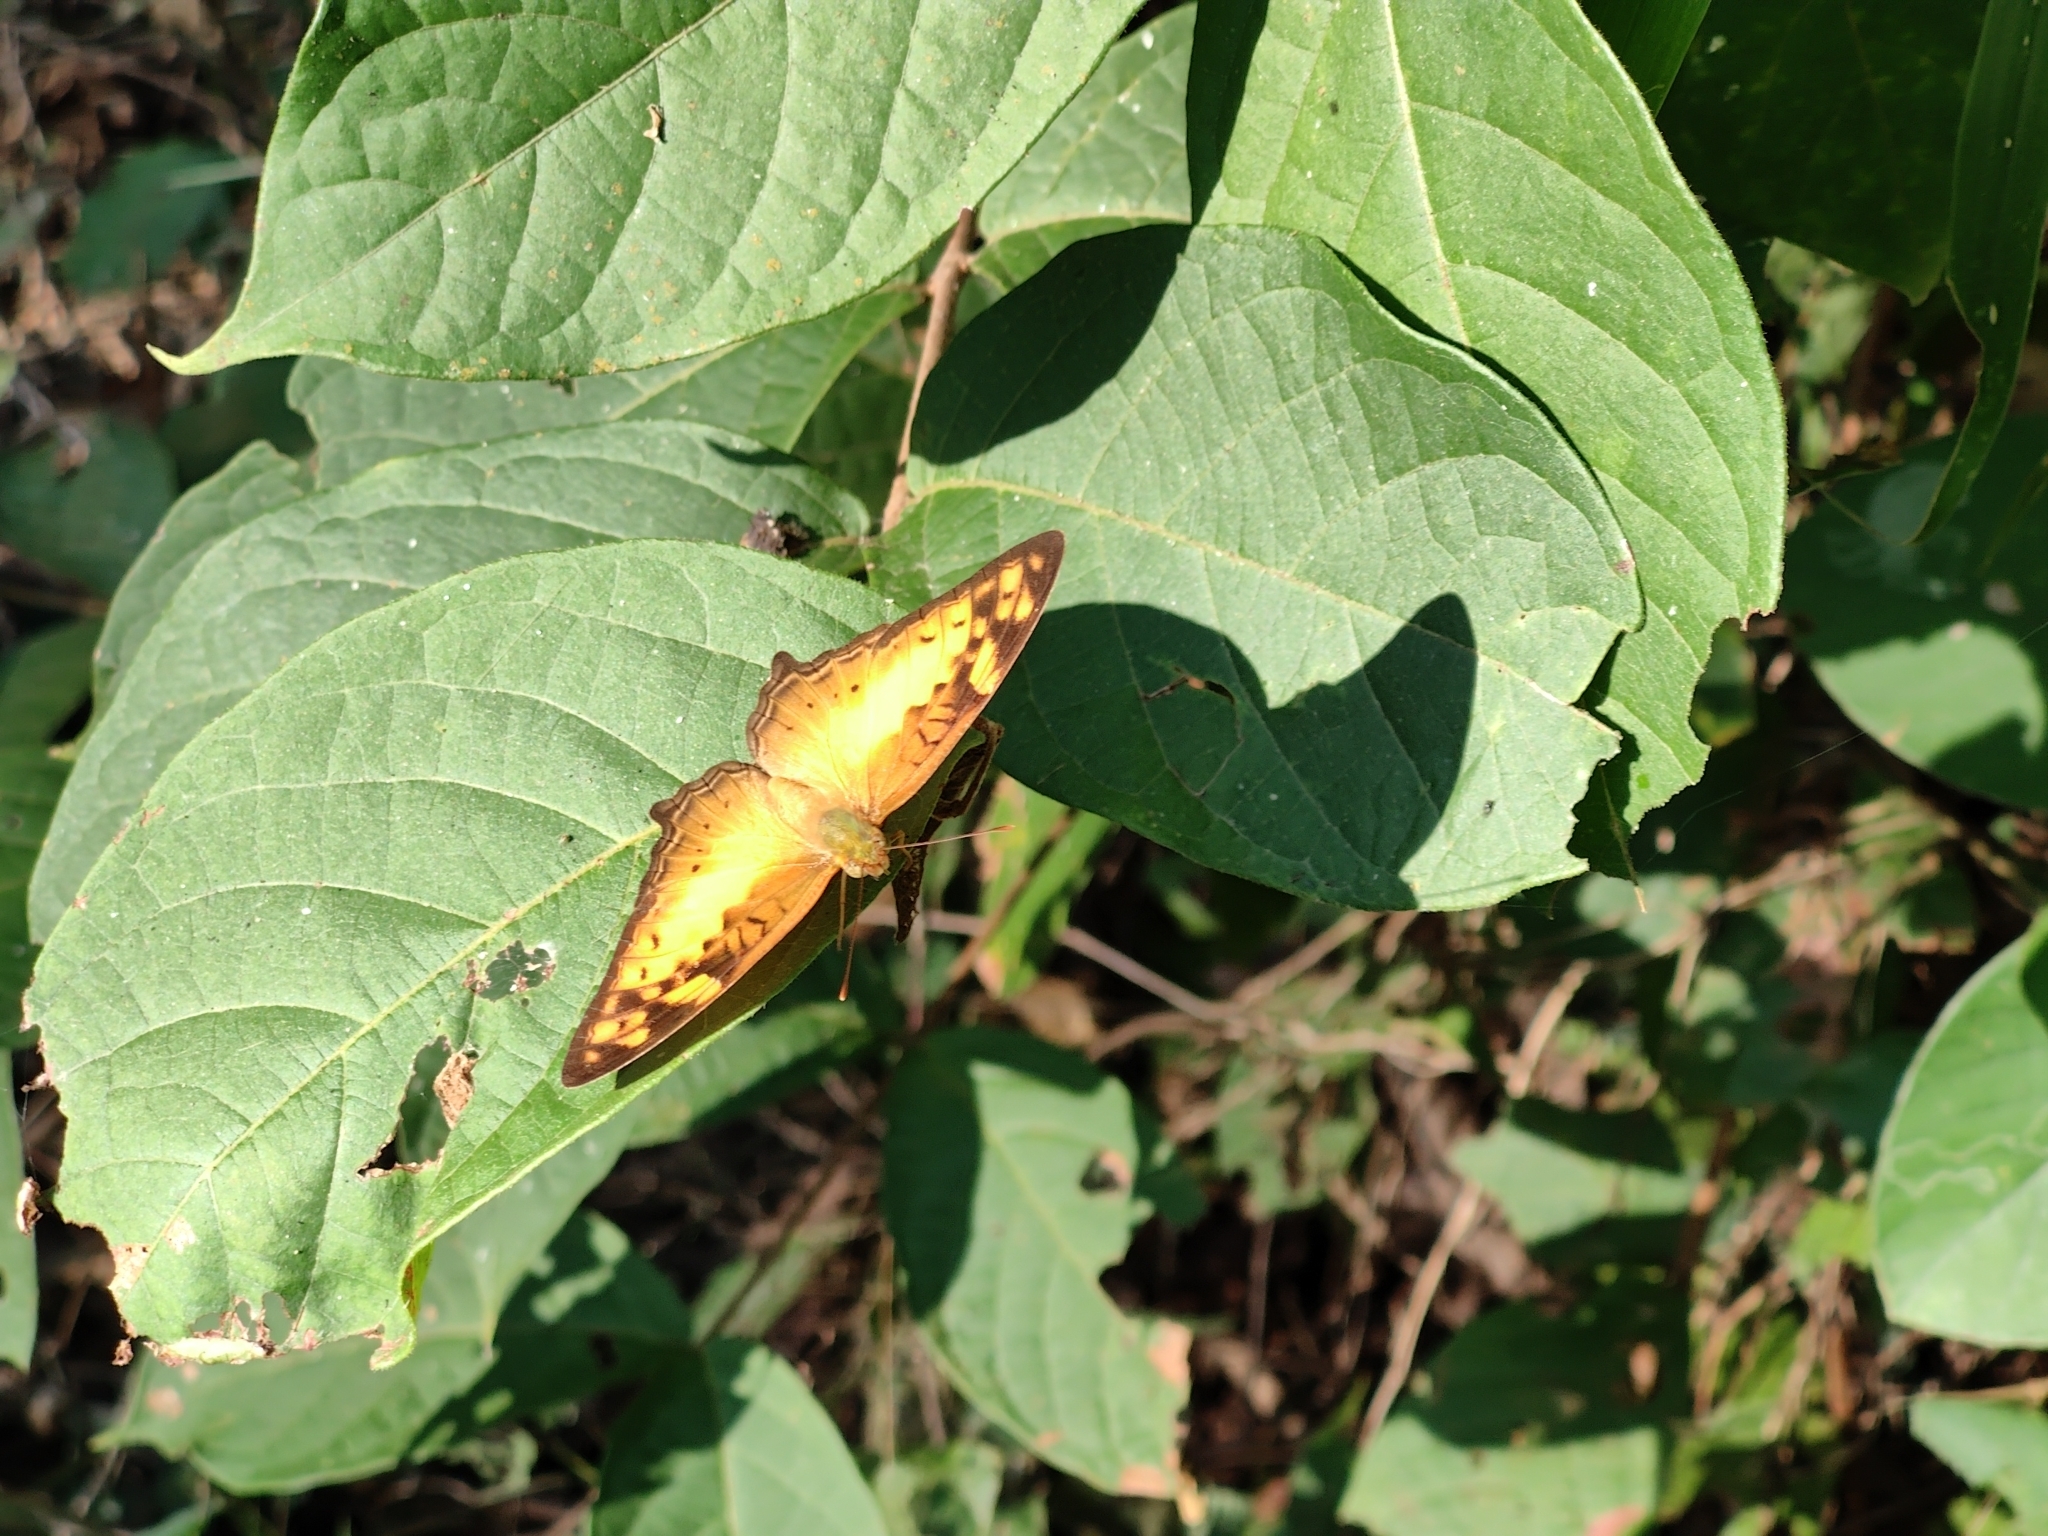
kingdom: Animalia
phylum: Arthropoda
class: Insecta
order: Lepidoptera
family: Nymphalidae
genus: Vagrans
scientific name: Vagrans egista
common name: Tailed rustic
